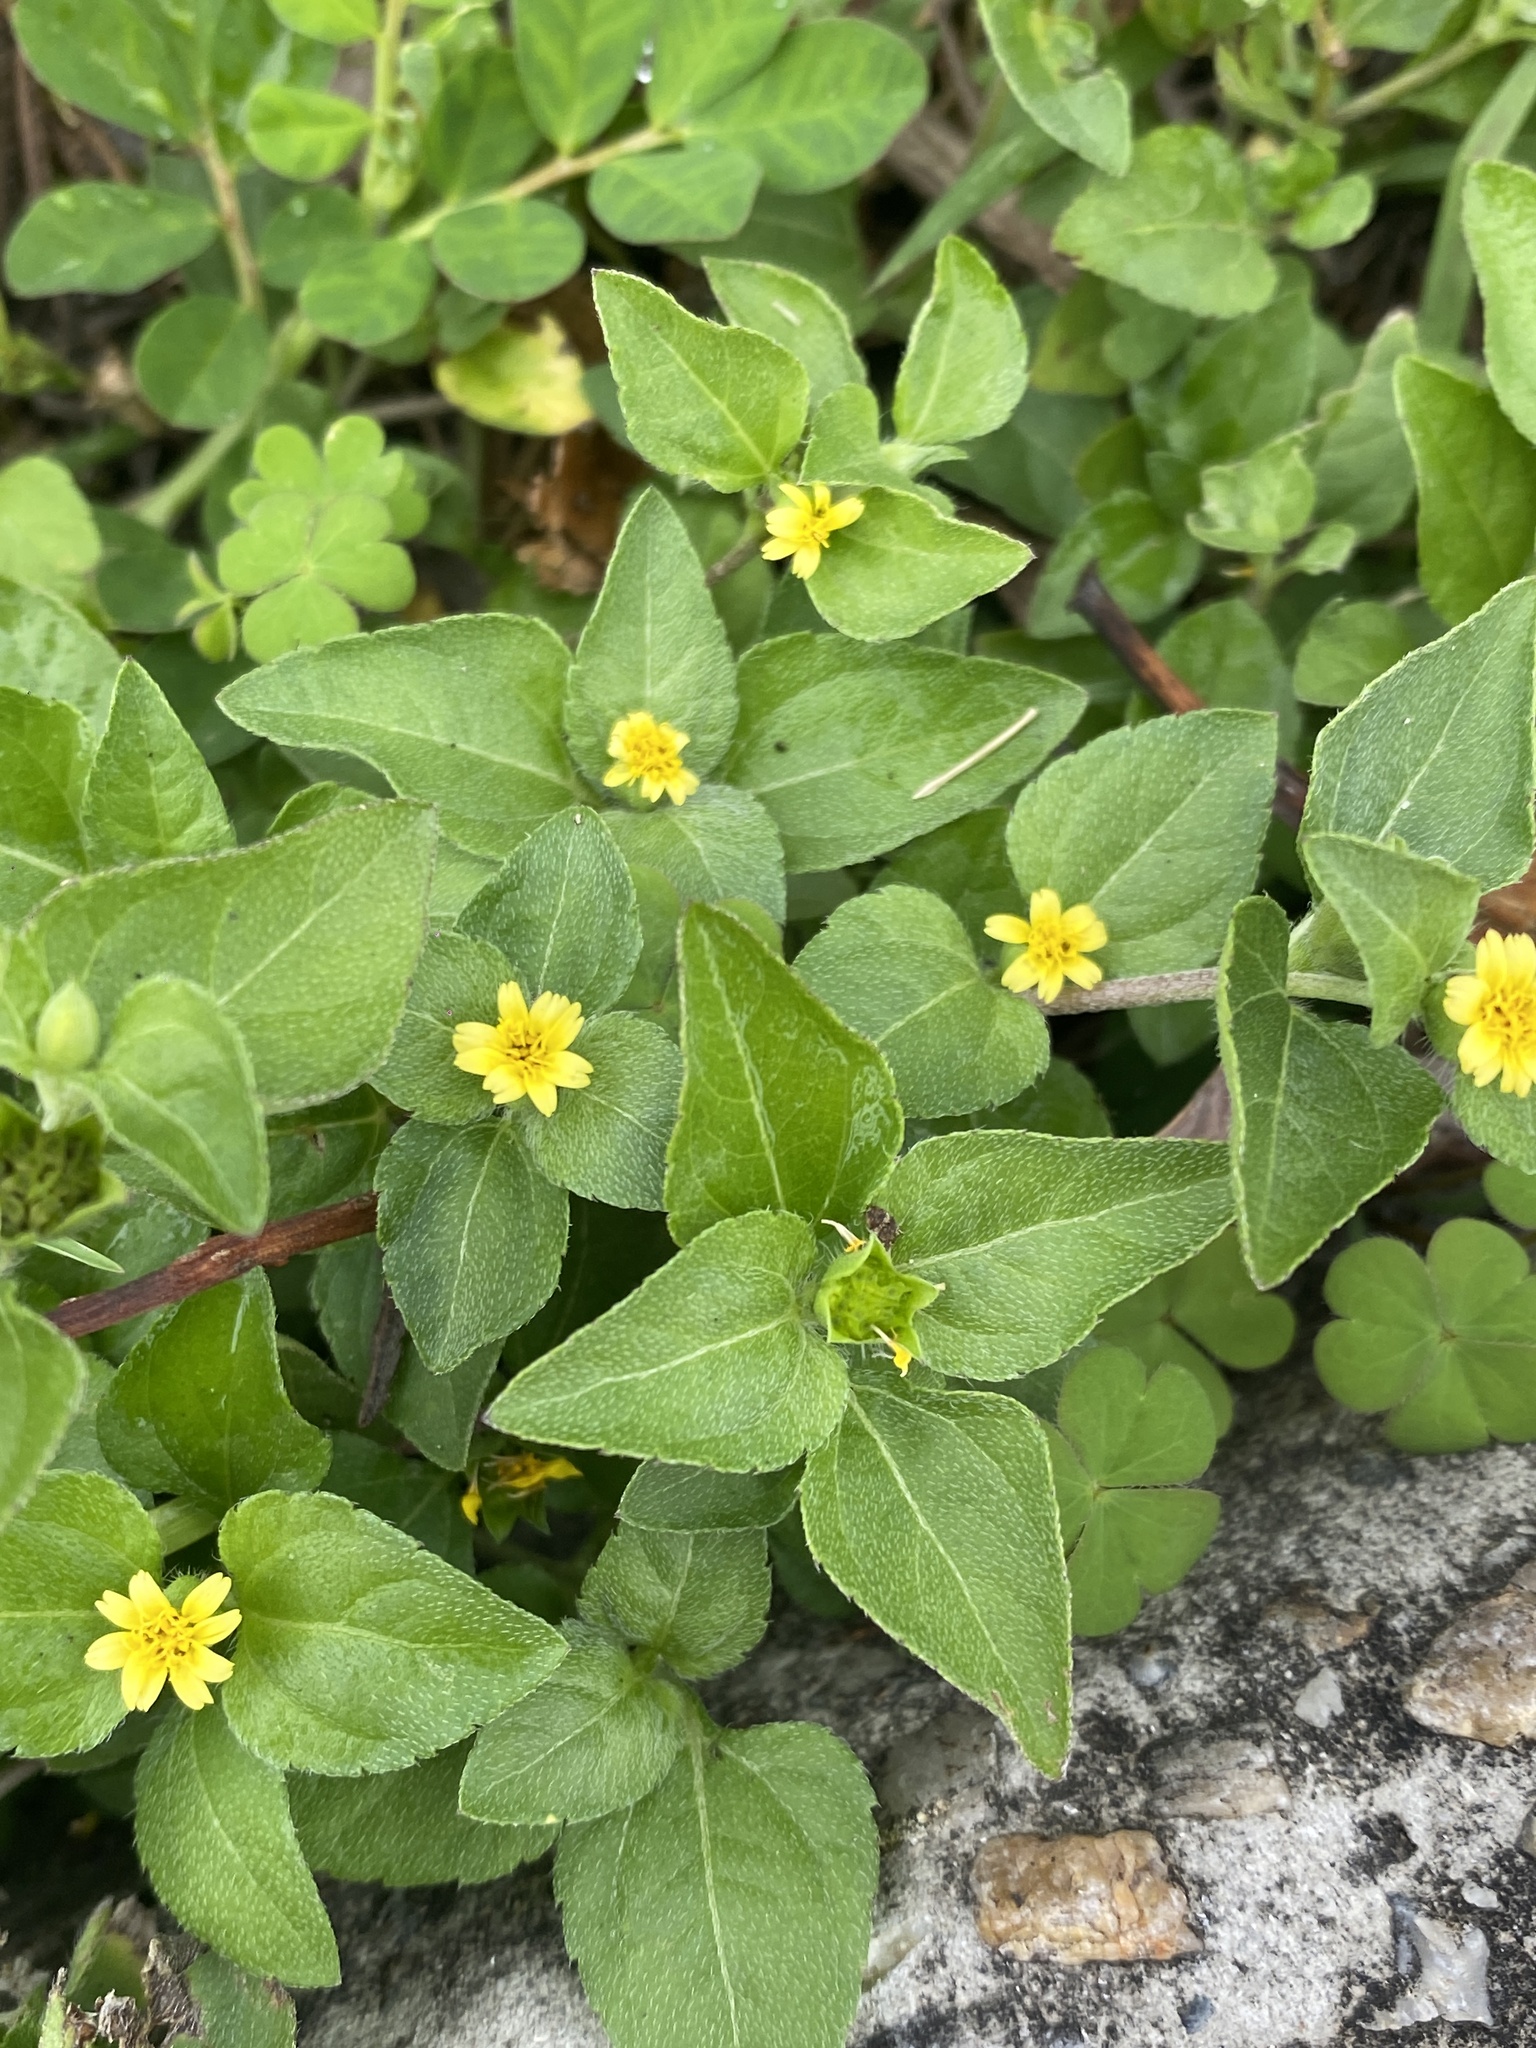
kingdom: Plantae
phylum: Tracheophyta
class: Magnoliopsida
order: Asterales
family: Asteraceae
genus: Calyptocarpus
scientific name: Calyptocarpus vialis
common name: Straggler daisy
